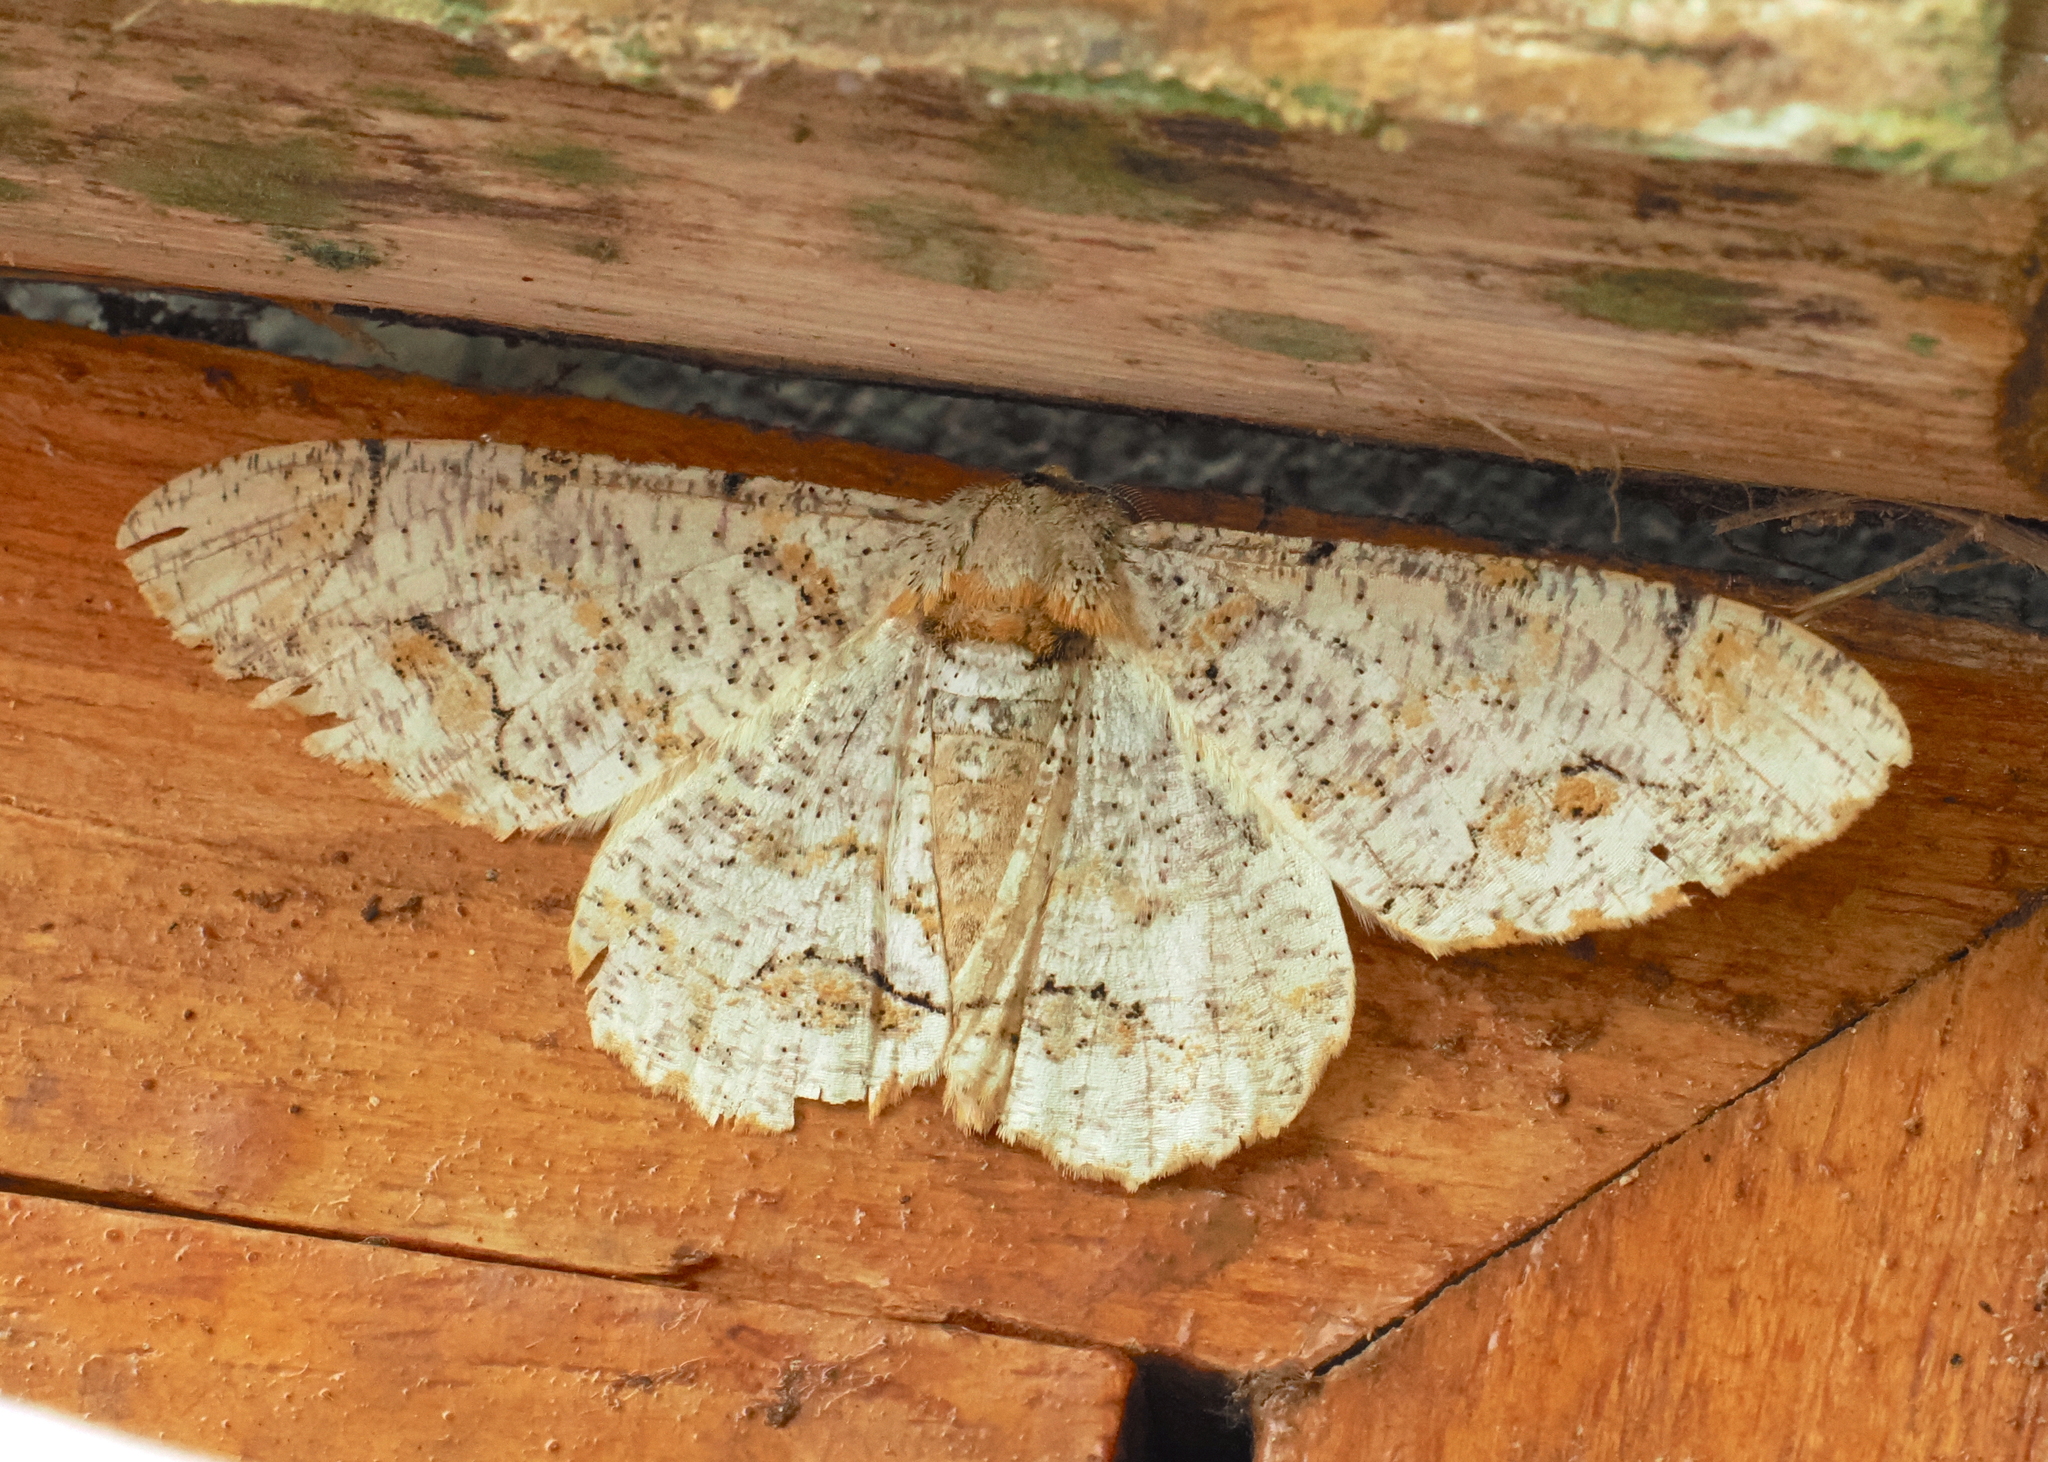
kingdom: Animalia
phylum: Arthropoda
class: Insecta
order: Lepidoptera
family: Geometridae
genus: Biston
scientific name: Biston suppressaria
